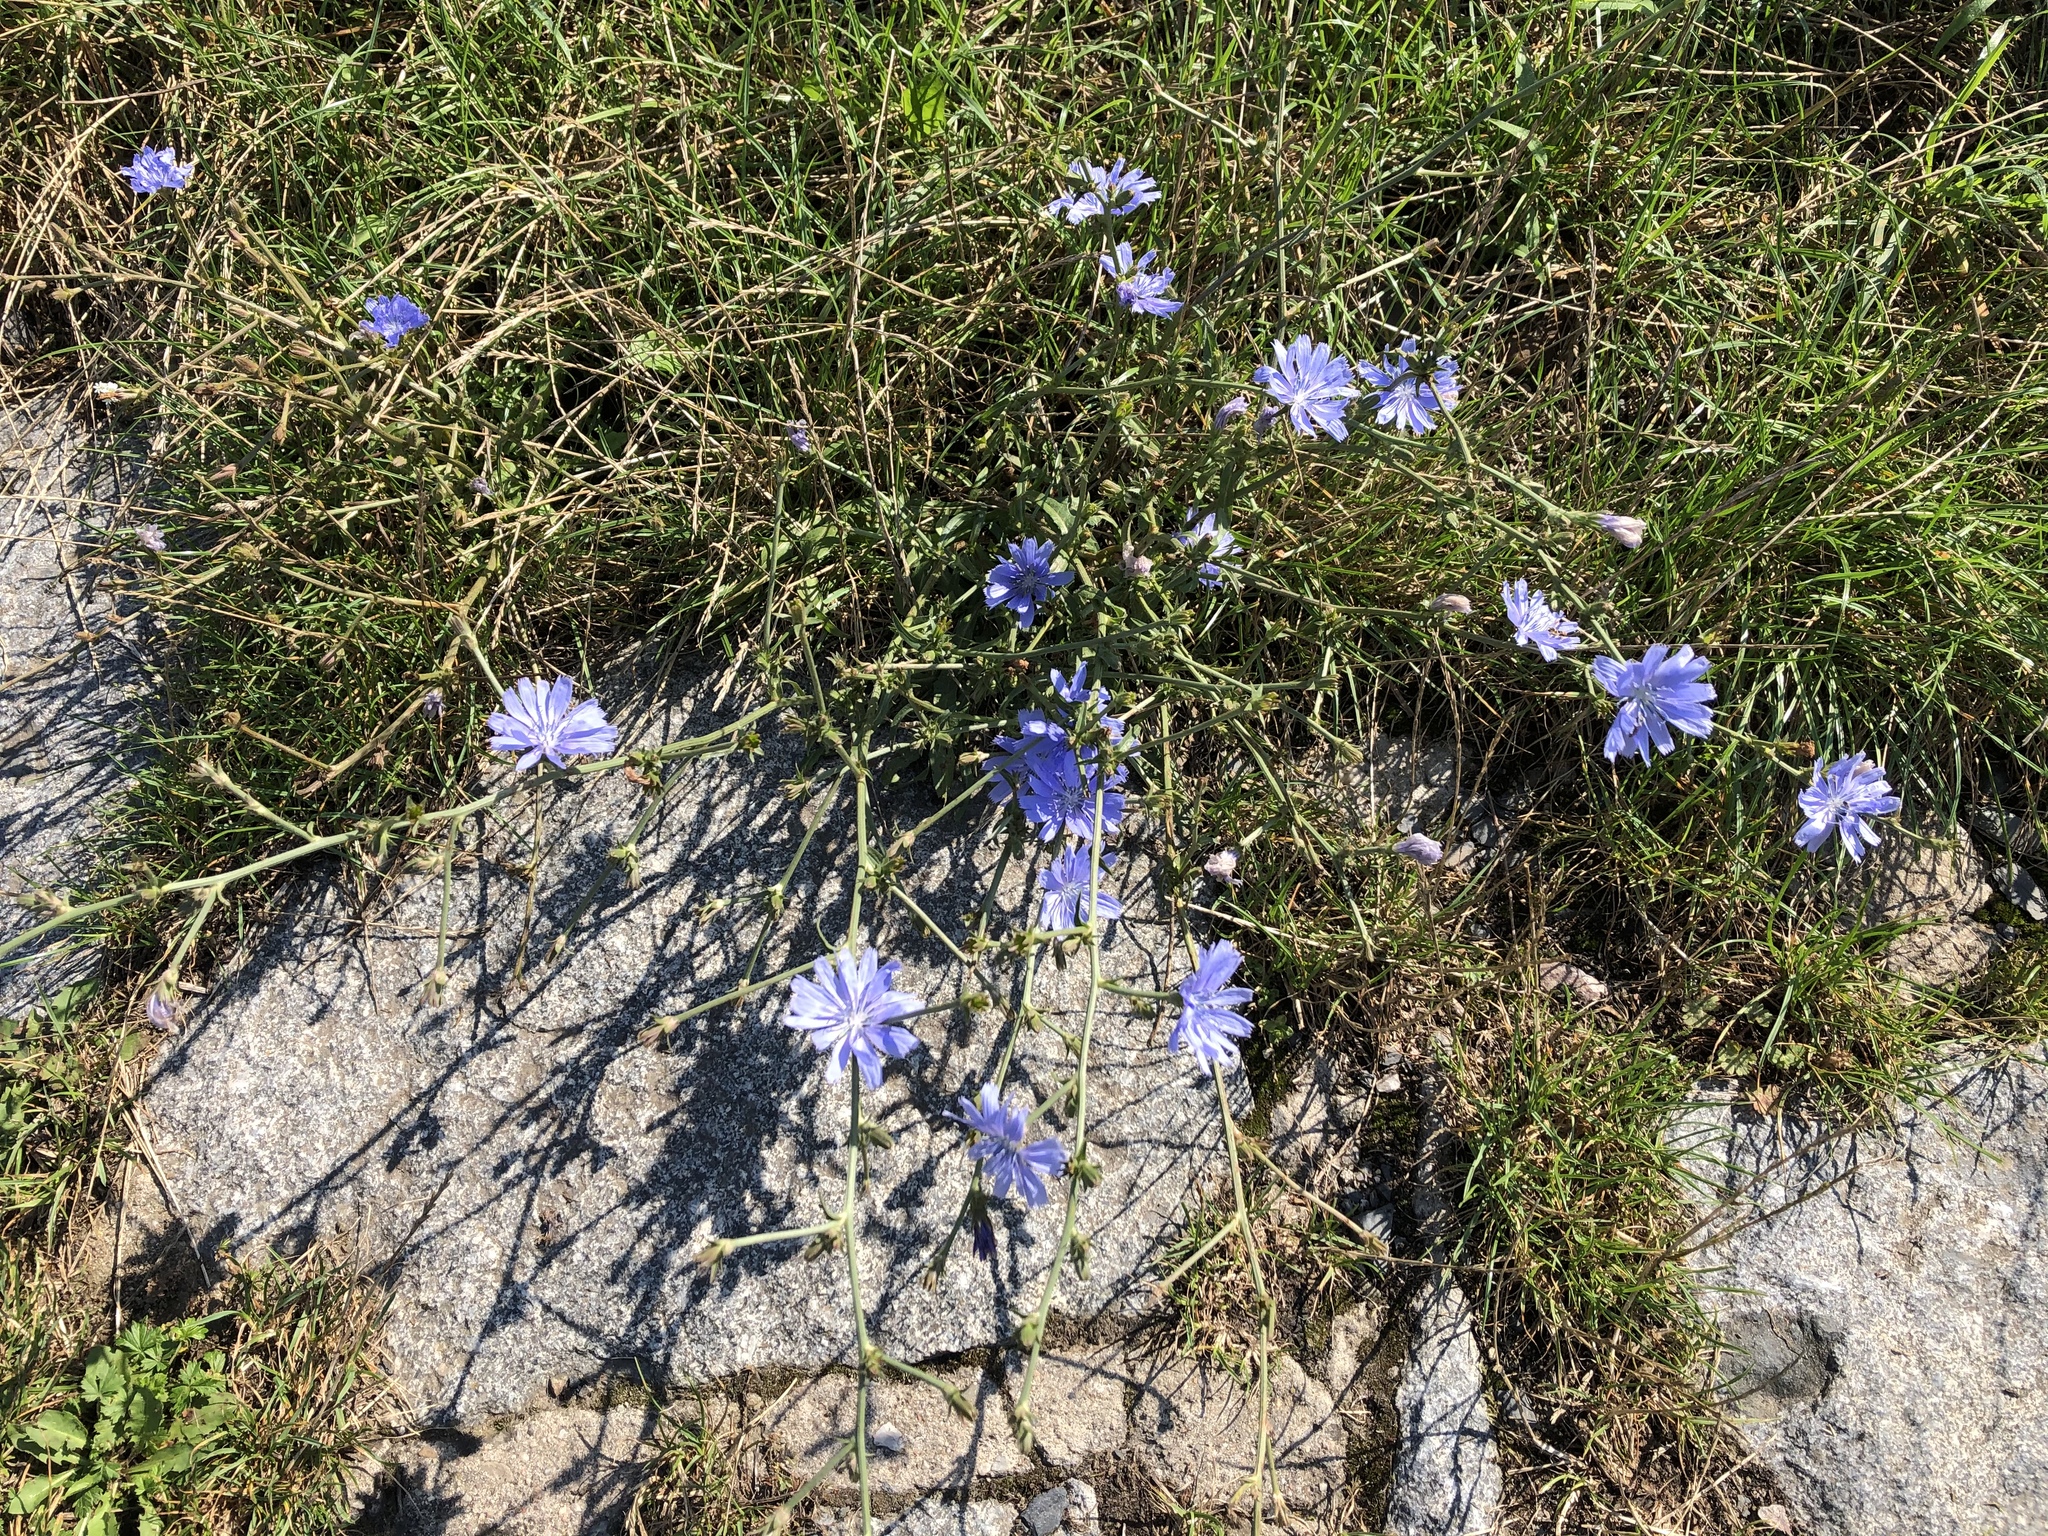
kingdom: Plantae
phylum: Tracheophyta
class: Magnoliopsida
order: Asterales
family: Asteraceae
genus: Cichorium
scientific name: Cichorium intybus
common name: Chicory
